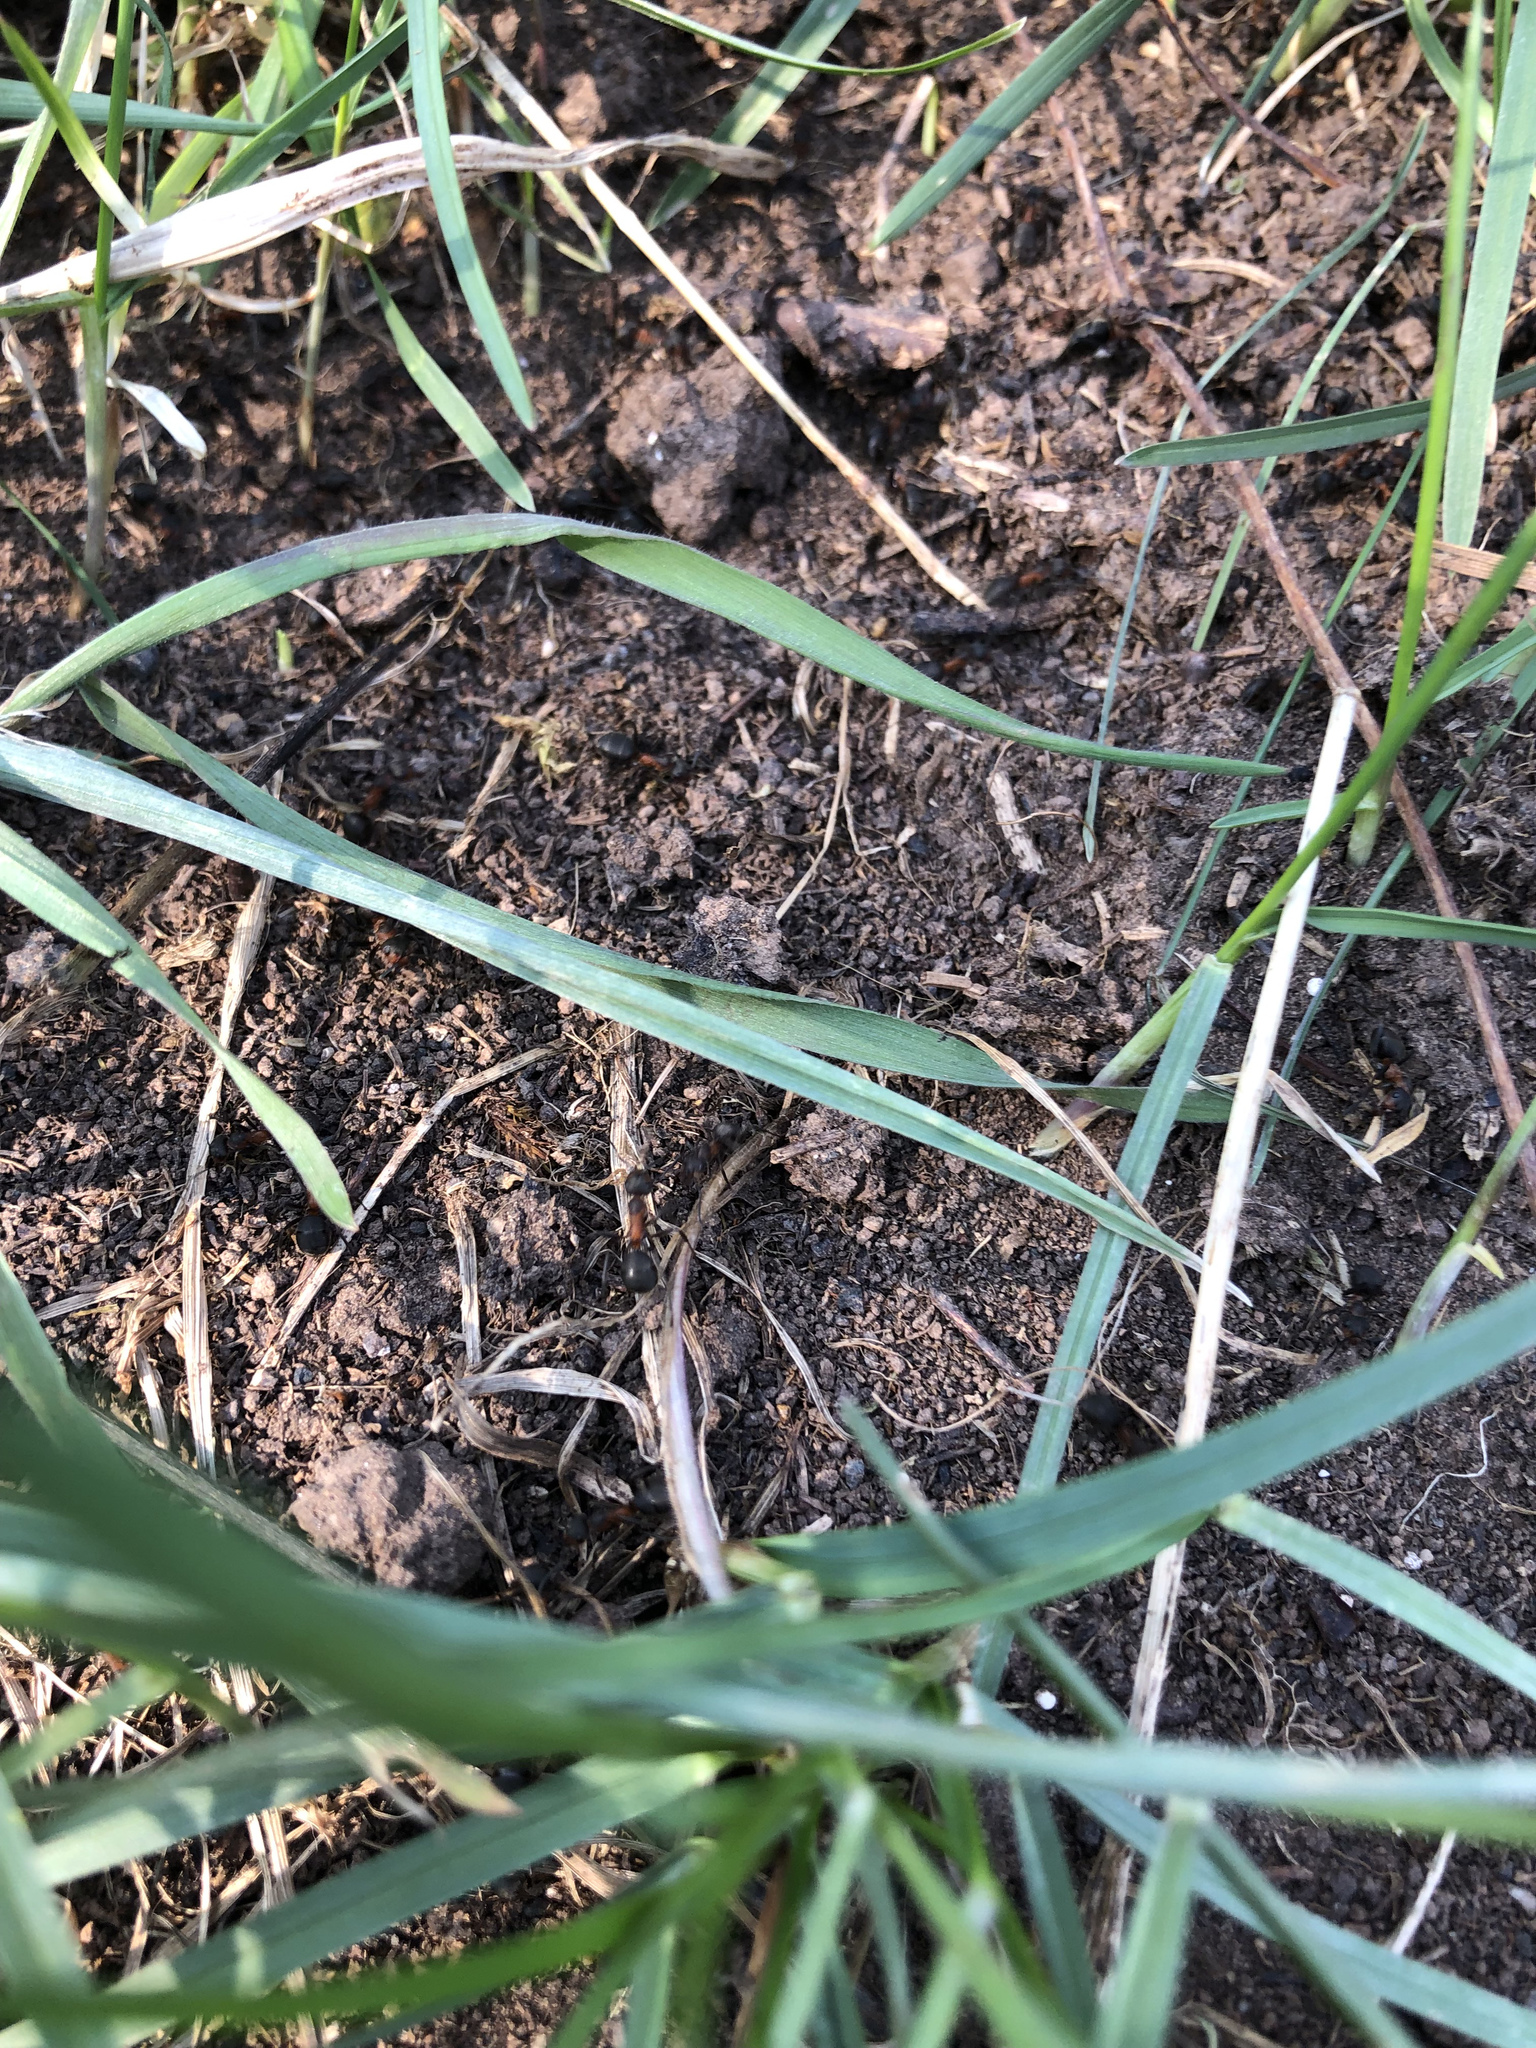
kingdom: Animalia
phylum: Arthropoda
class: Insecta
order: Hymenoptera
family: Formicidae
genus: Formica
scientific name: Formica pratensis
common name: European red wood ant
